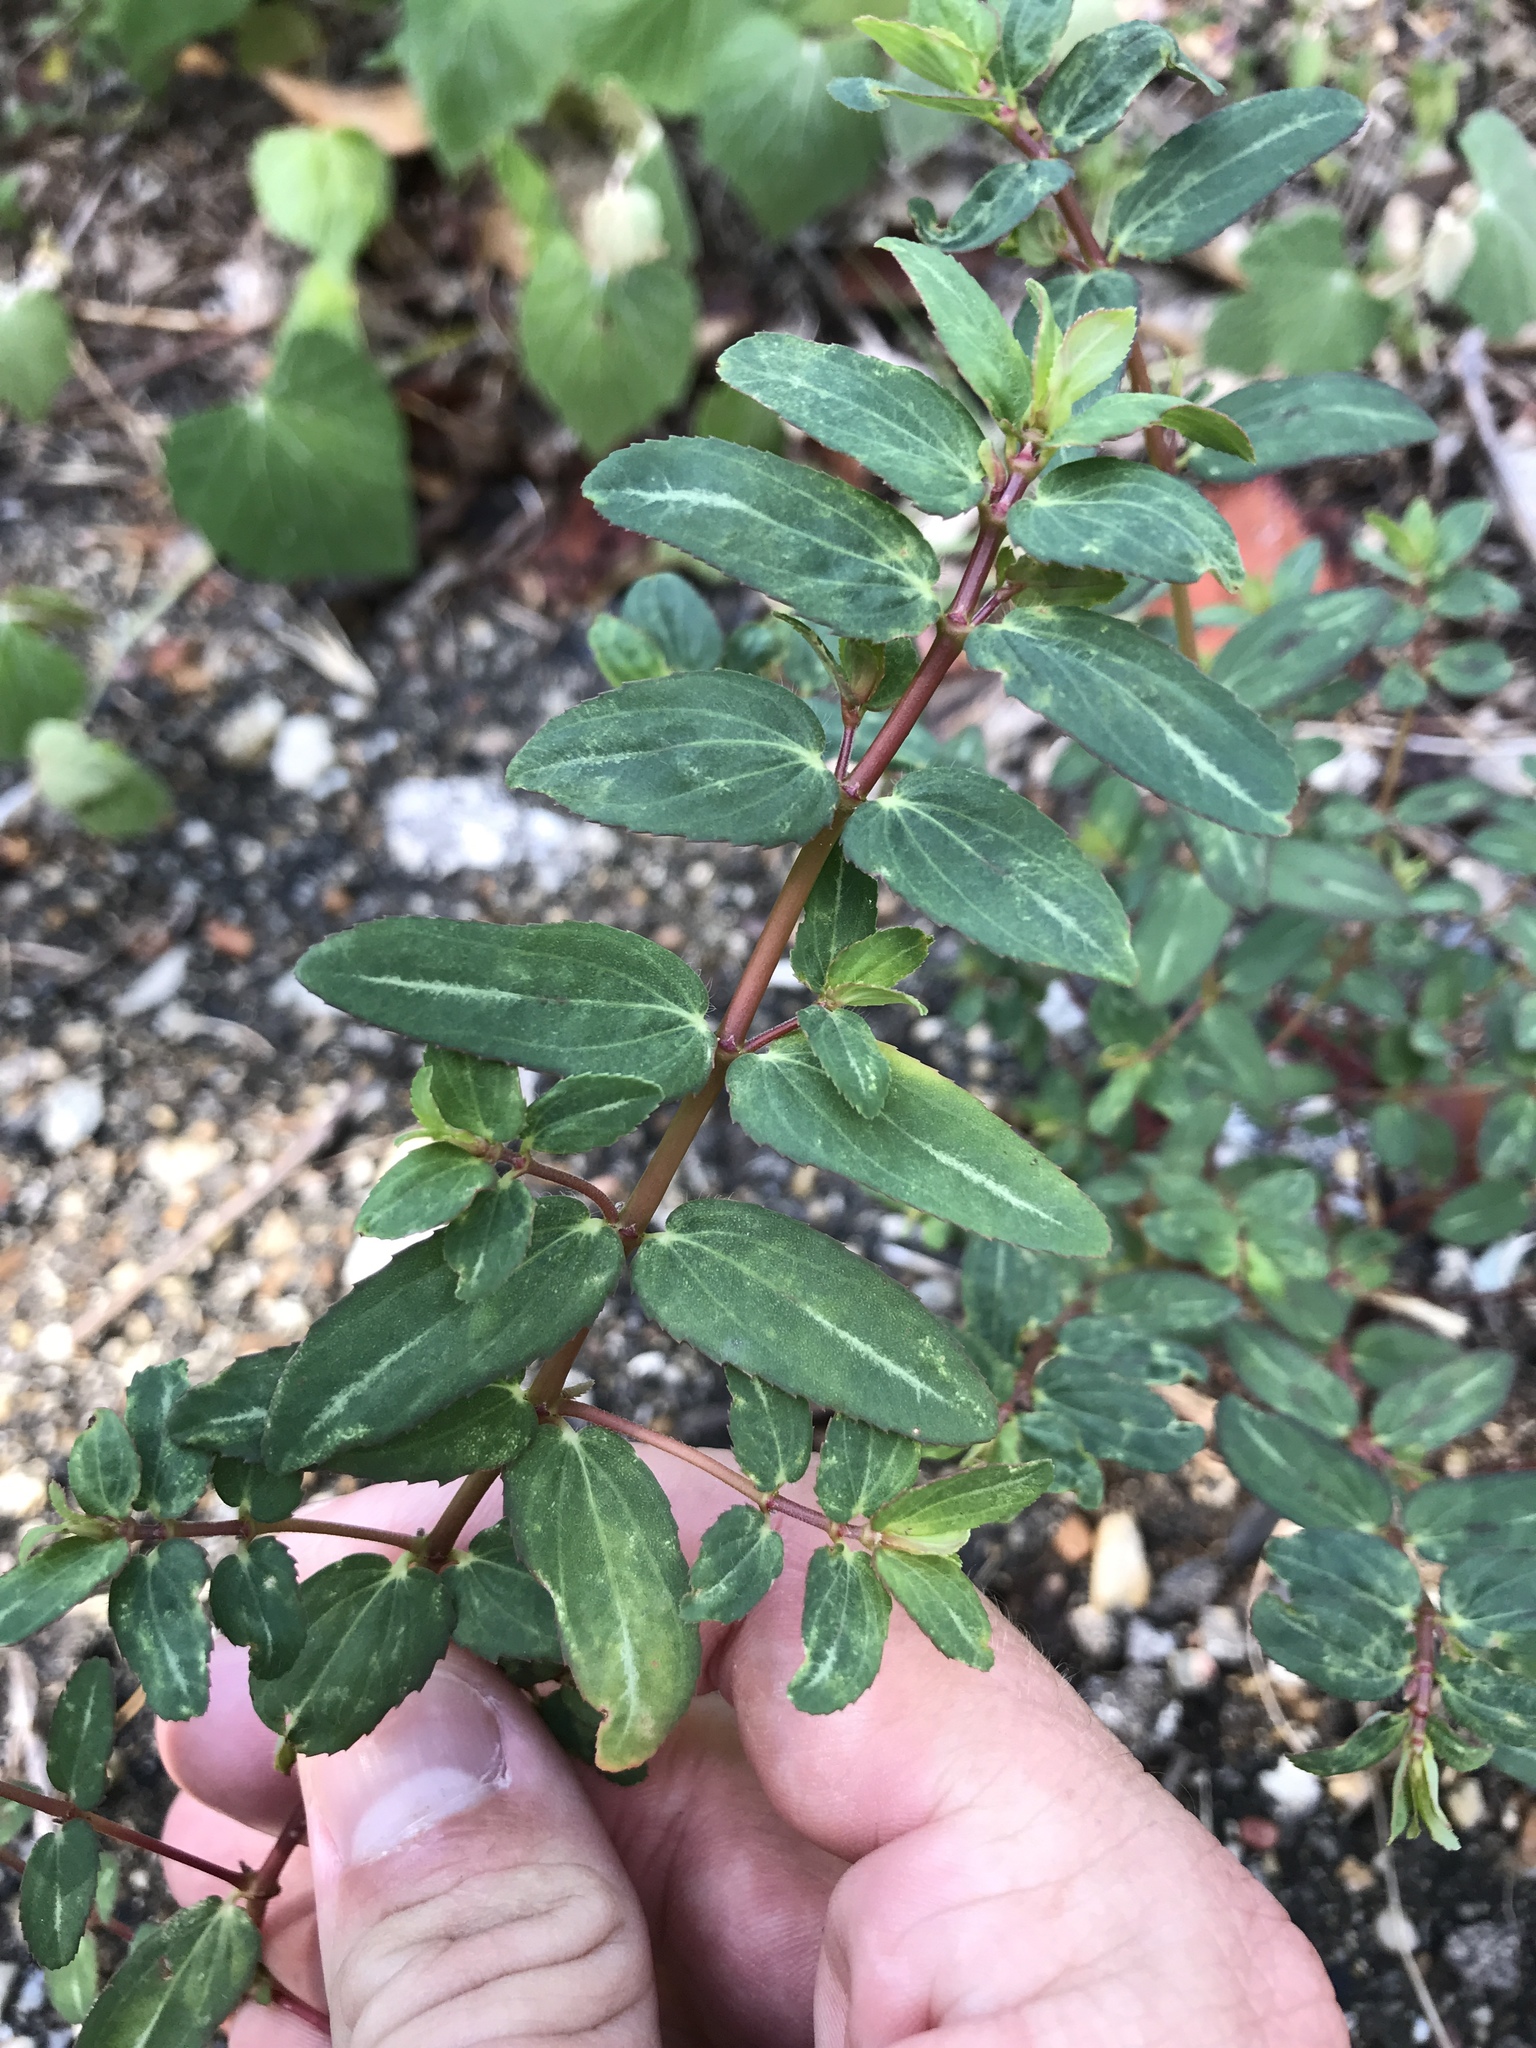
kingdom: Plantae
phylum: Tracheophyta
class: Magnoliopsida
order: Malpighiales
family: Euphorbiaceae
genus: Euphorbia
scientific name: Euphorbia nutans
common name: Eyebane
